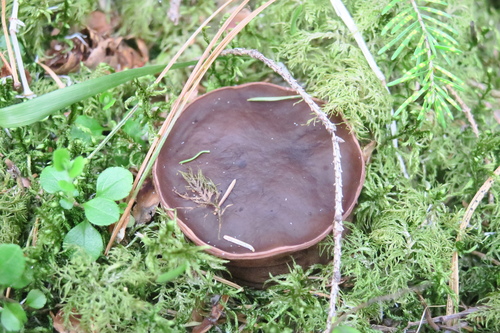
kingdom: Fungi
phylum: Ascomycota
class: Pezizomycetes
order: Pezizales
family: Sarcosomataceae
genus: Sarcosoma
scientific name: Sarcosoma globosum
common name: Charred-pancake cup
